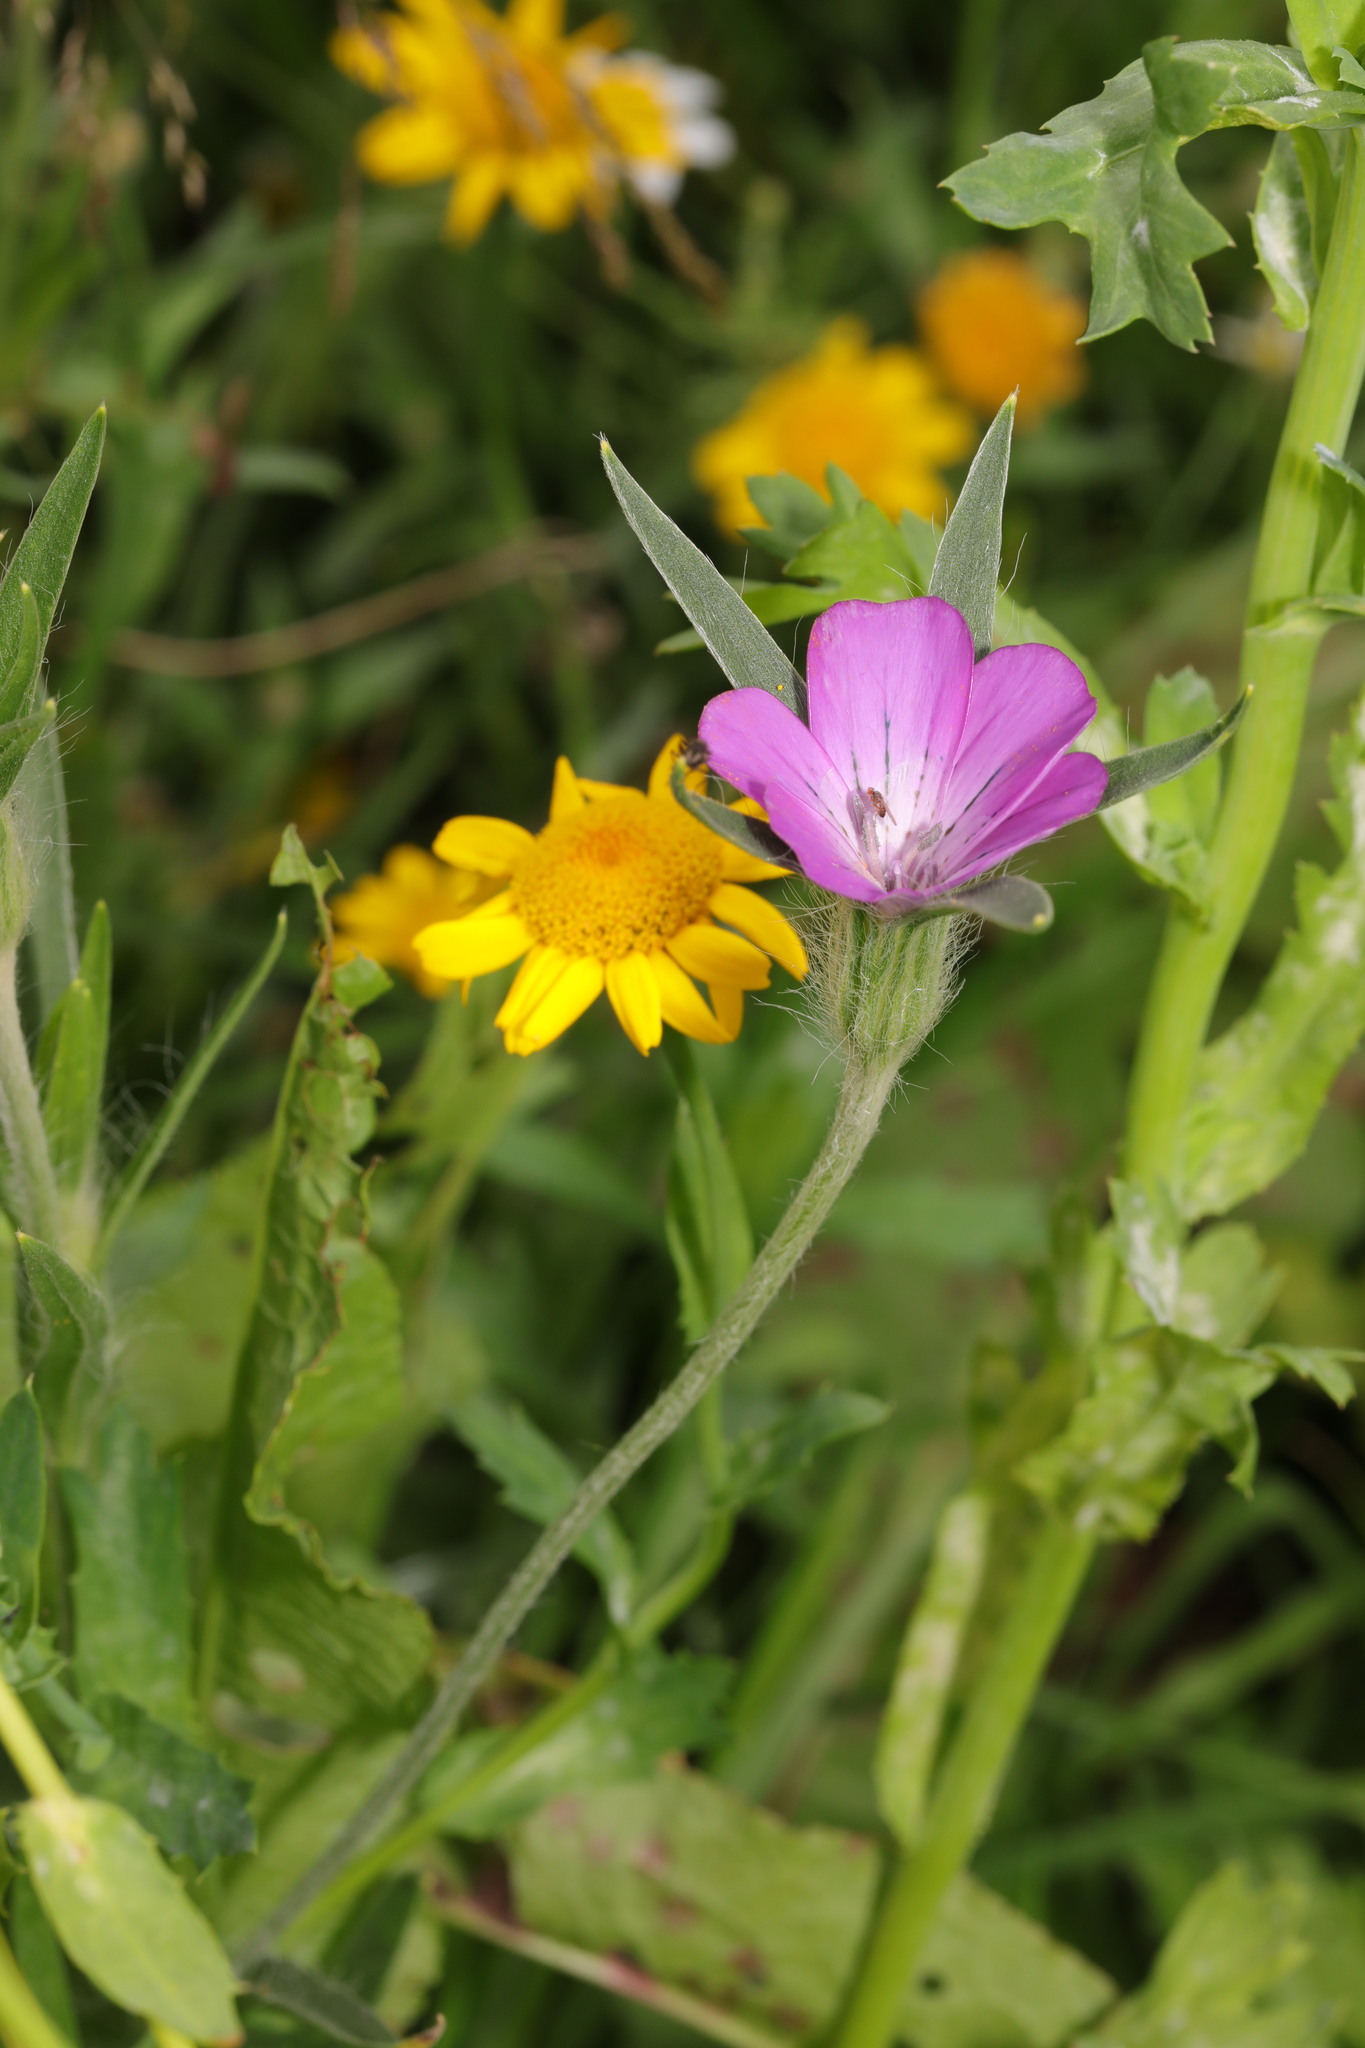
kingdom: Plantae
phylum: Tracheophyta
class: Magnoliopsida
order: Caryophyllales
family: Caryophyllaceae
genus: Agrostemma
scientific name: Agrostemma githago
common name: Common corncockle
